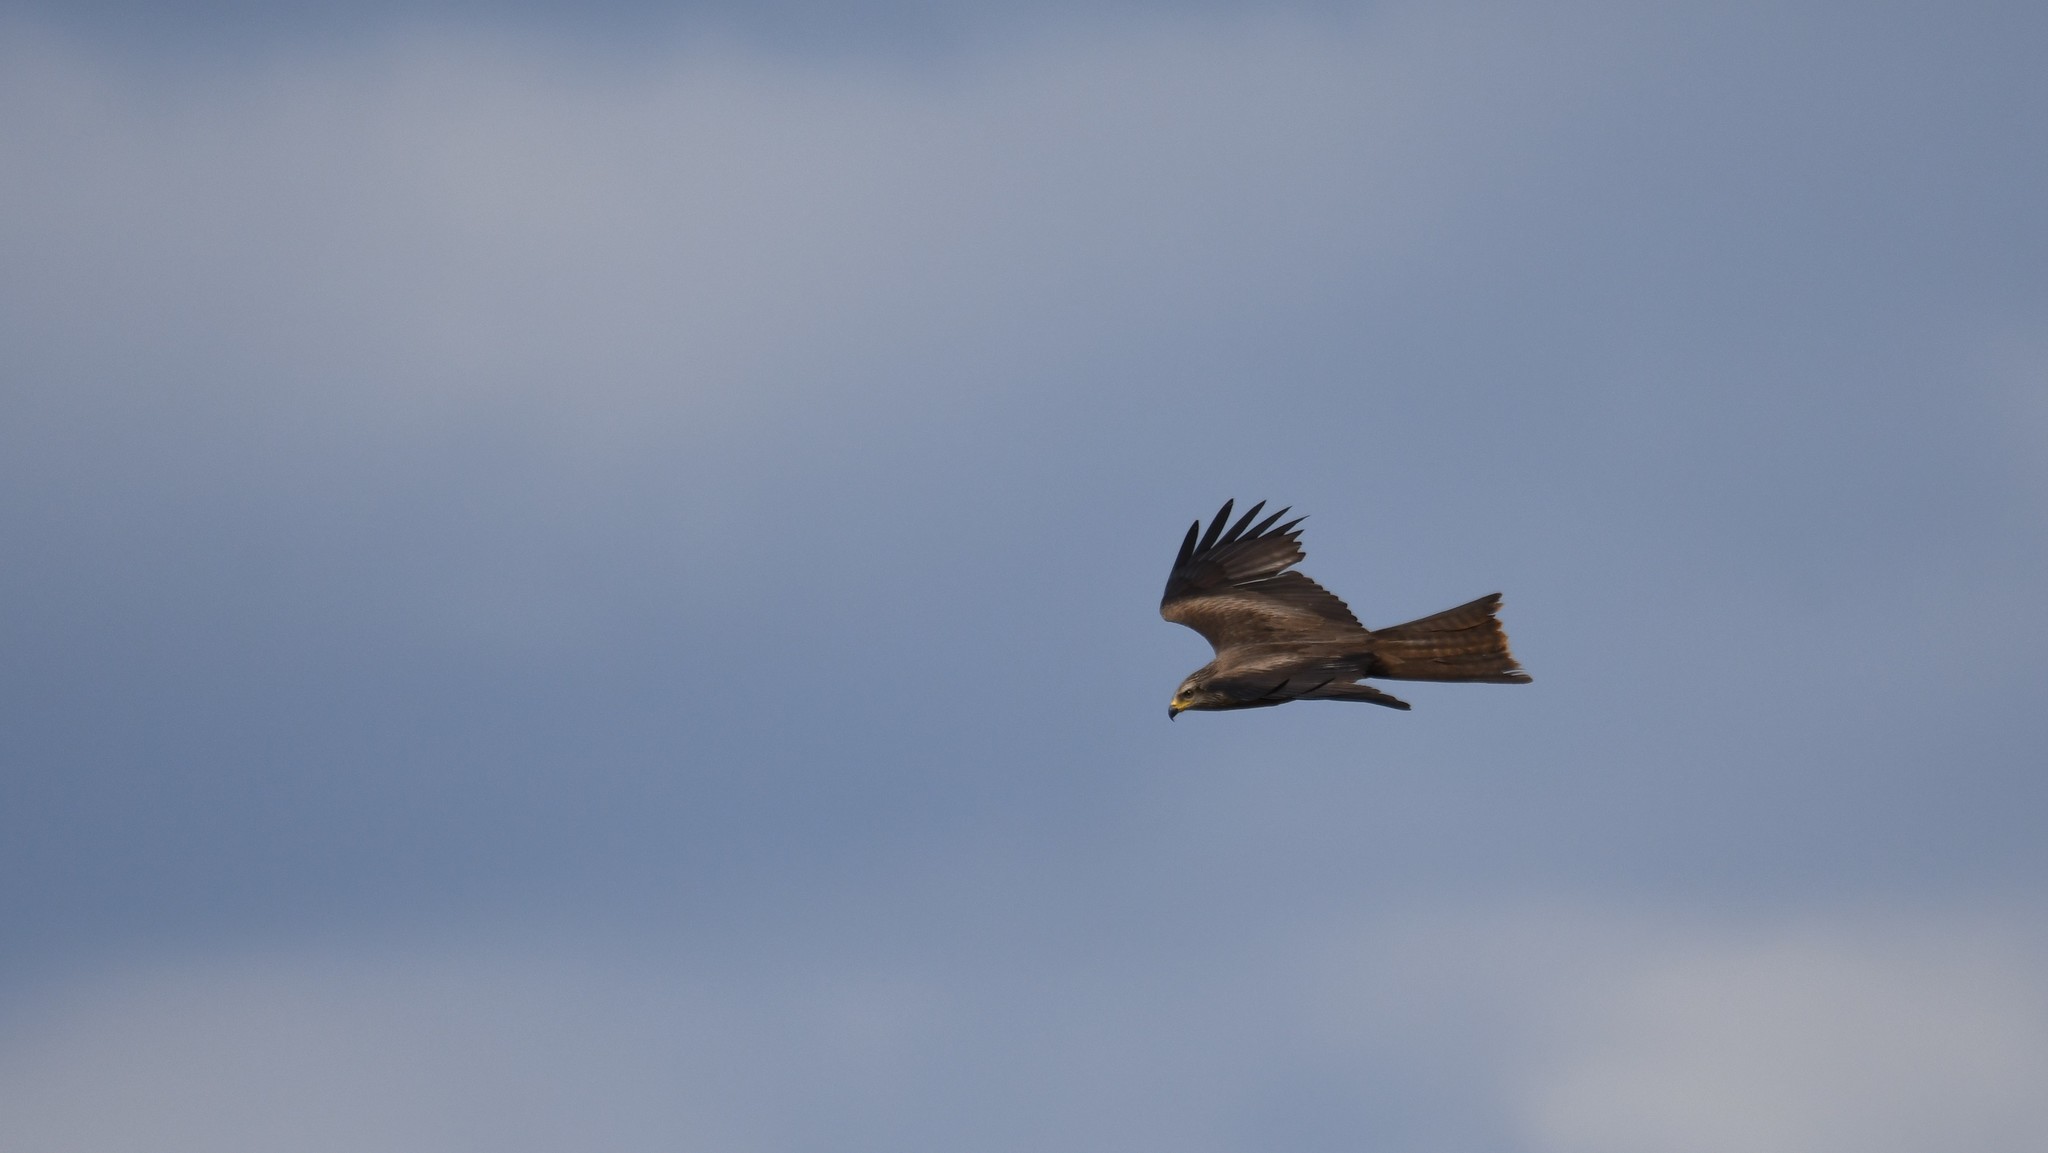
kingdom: Animalia
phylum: Chordata
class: Aves
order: Accipitriformes
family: Accipitridae
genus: Milvus
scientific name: Milvus migrans
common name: Black kite
